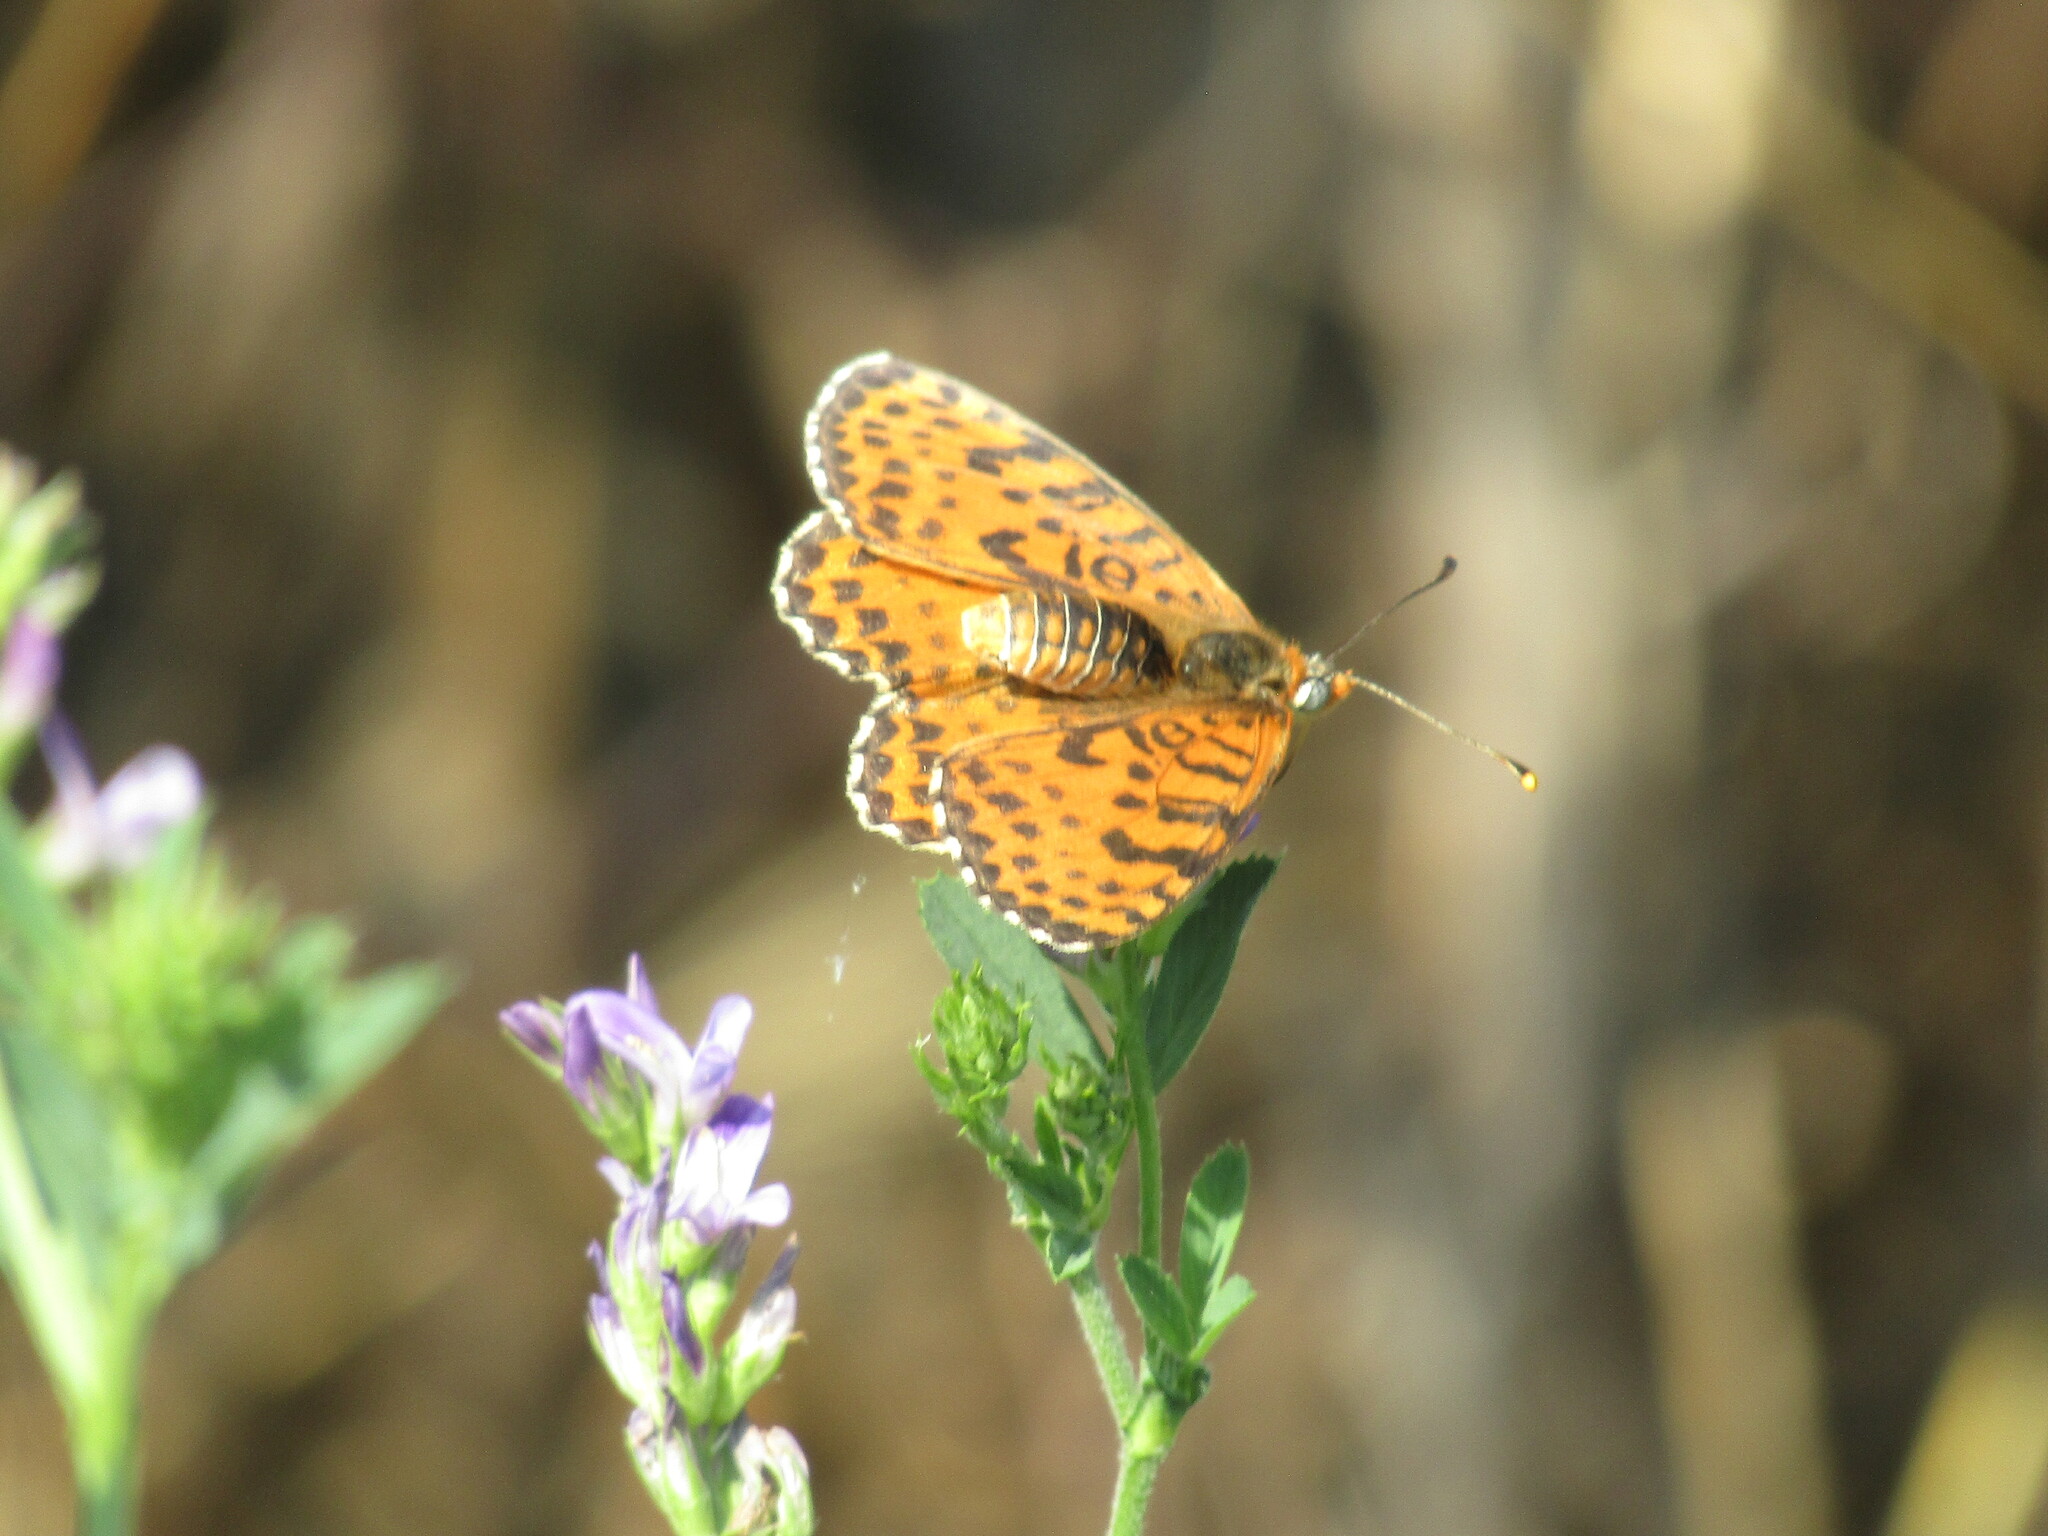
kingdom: Animalia
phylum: Arthropoda
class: Insecta
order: Lepidoptera
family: Nymphalidae
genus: Melitaea
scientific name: Melitaea didyma
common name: Spotted fritillary
